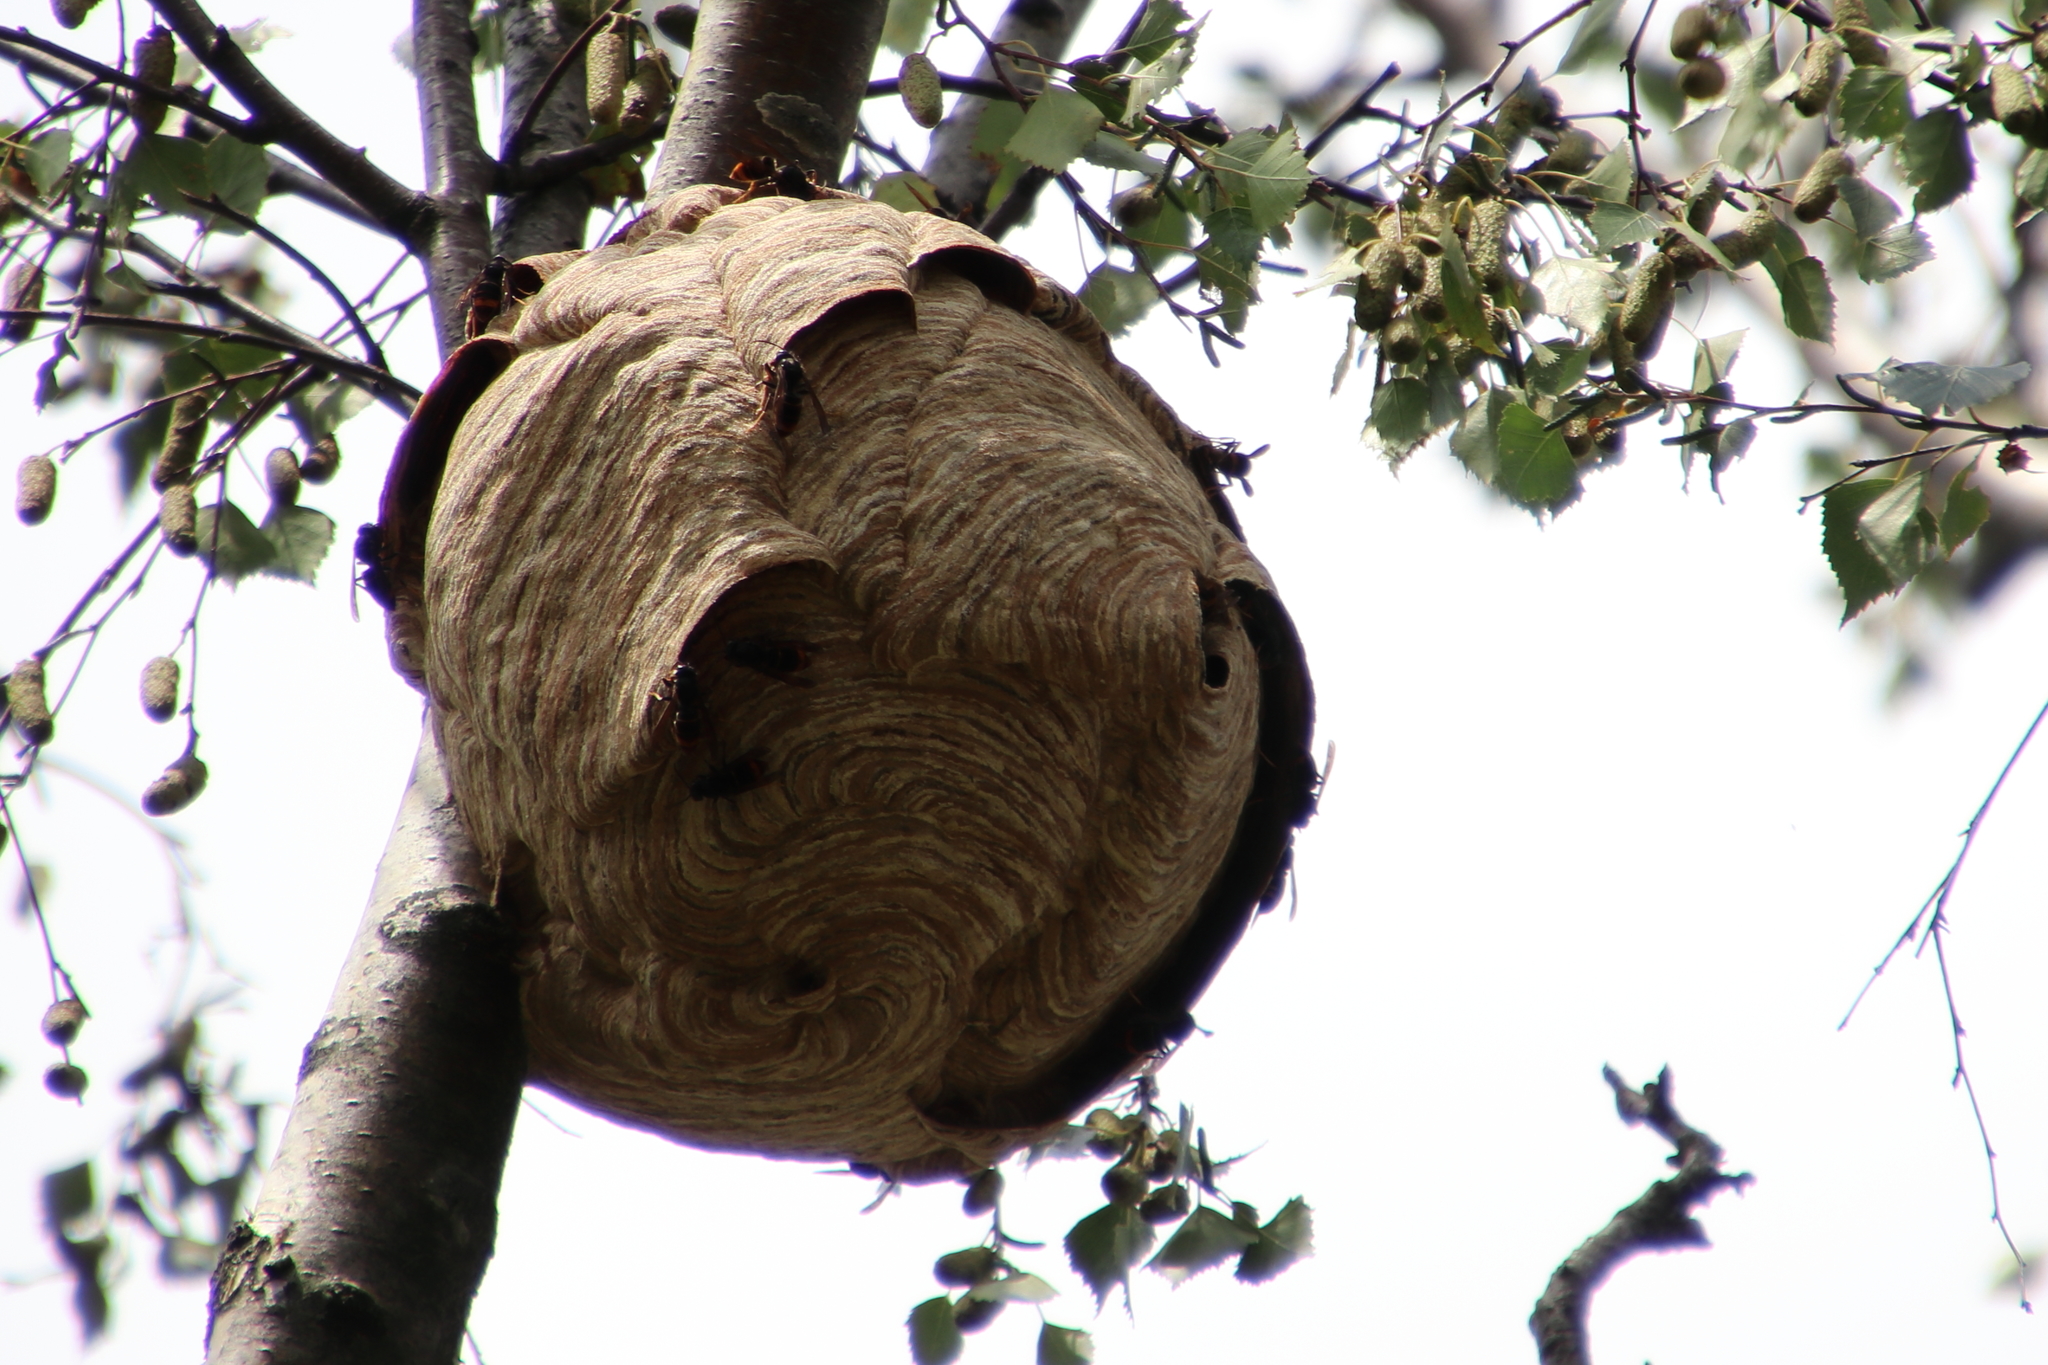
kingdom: Animalia
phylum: Arthropoda
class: Insecta
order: Hymenoptera
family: Vespidae
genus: Vespa
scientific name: Vespa velutina
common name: Asian hornet
